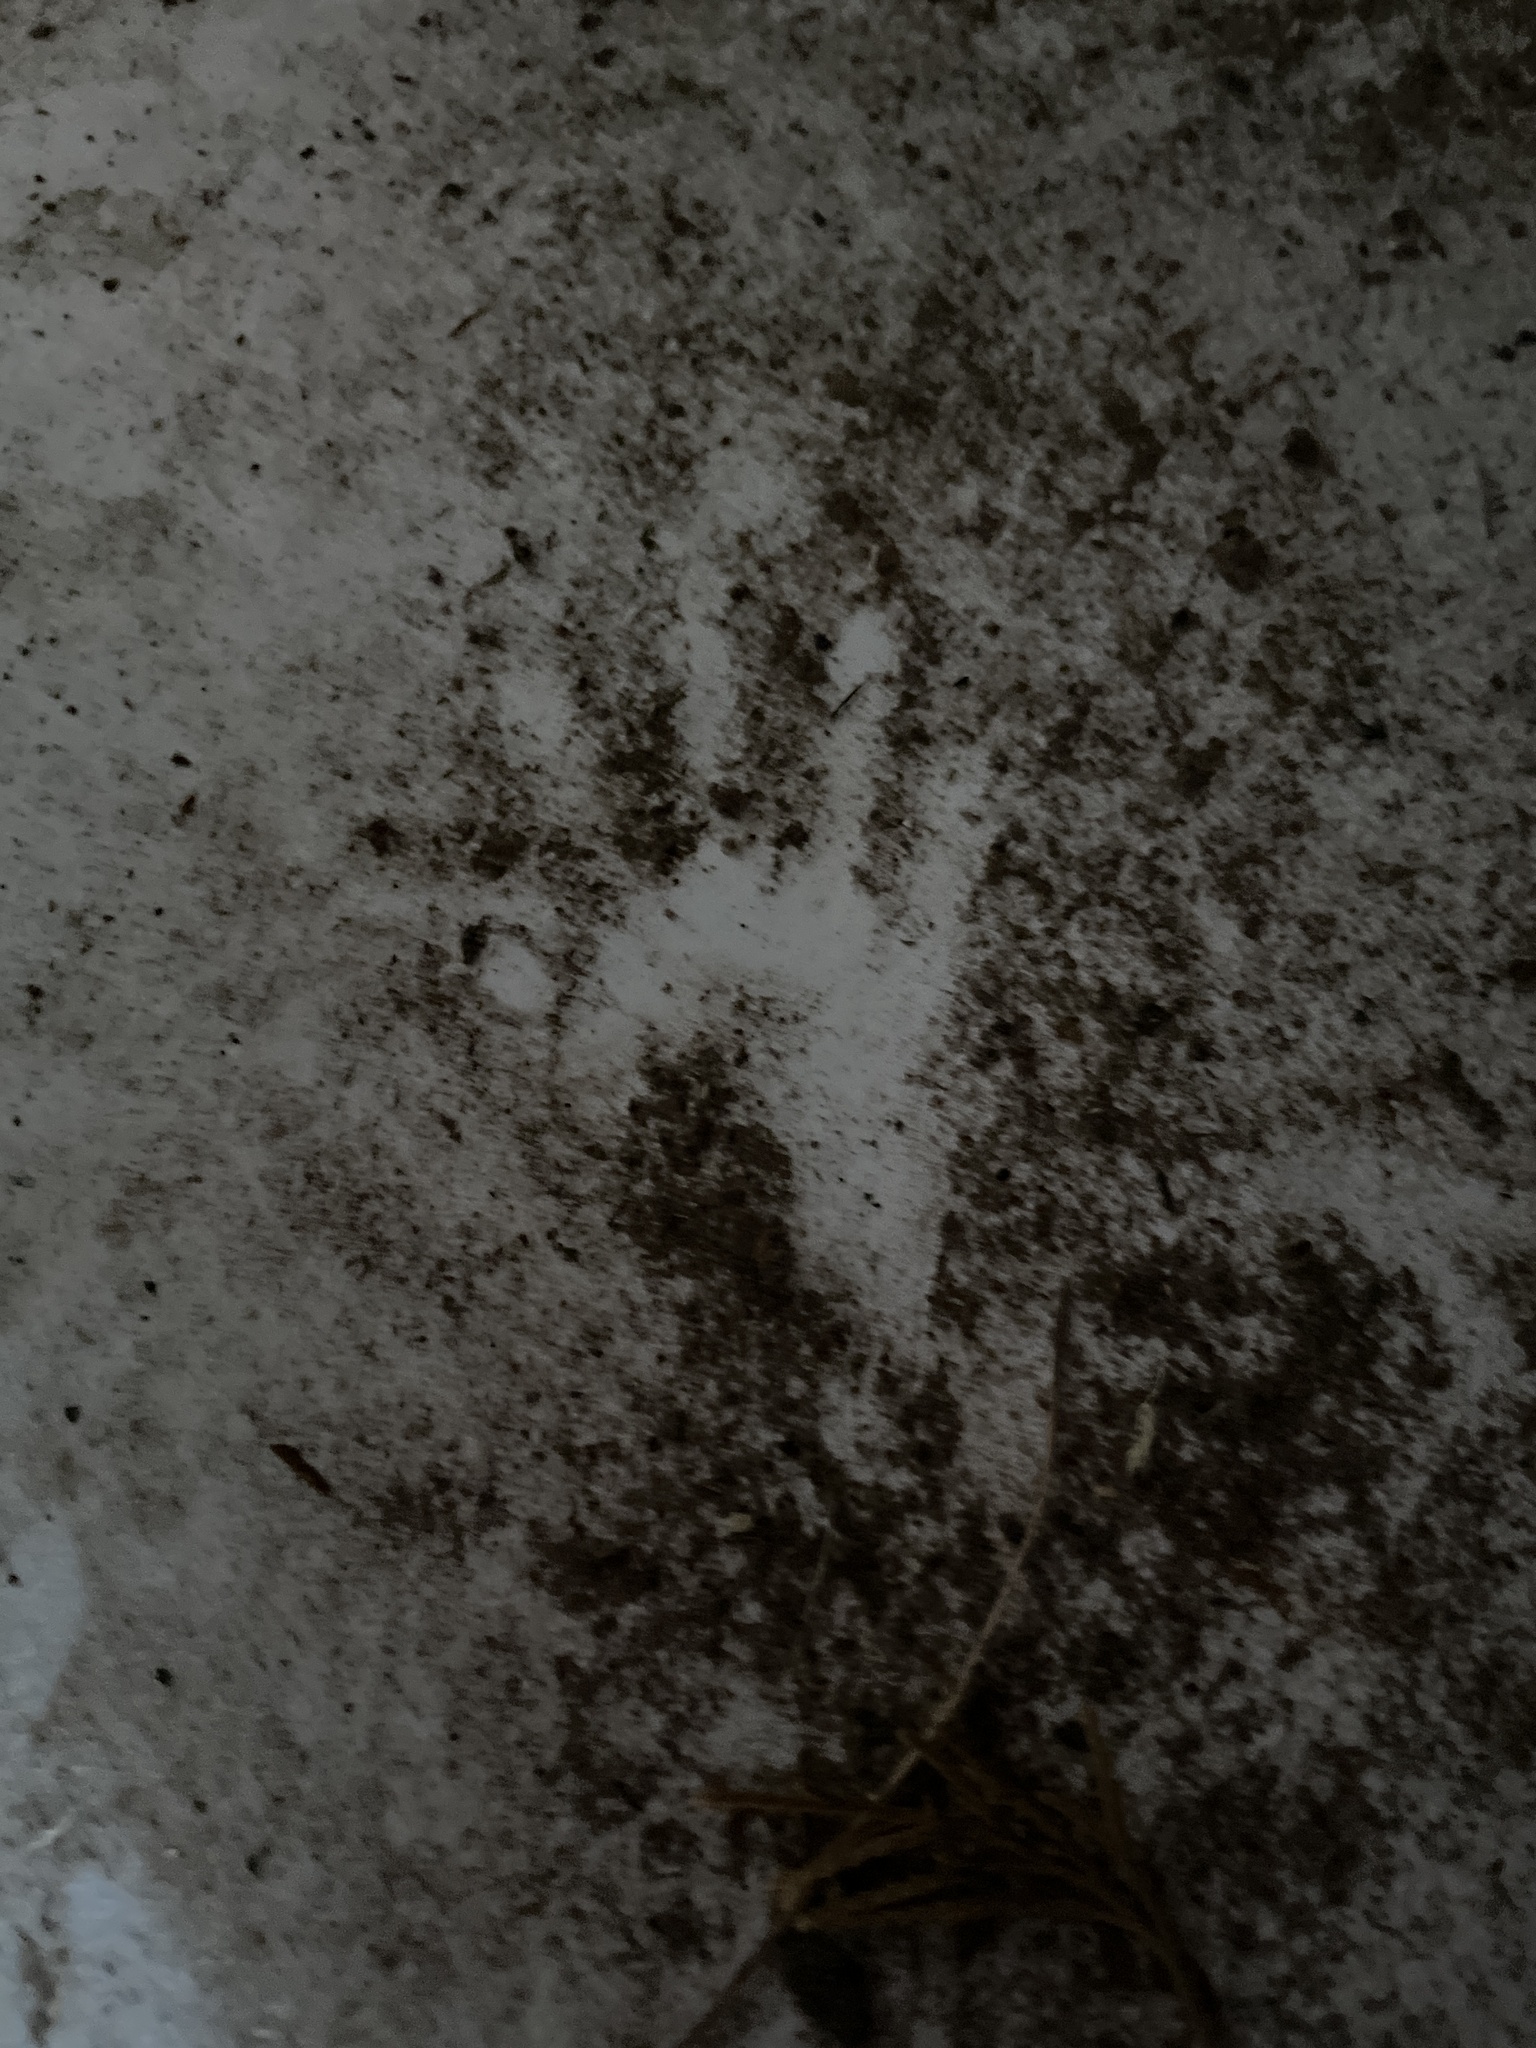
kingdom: Animalia
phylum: Chordata
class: Mammalia
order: Carnivora
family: Procyonidae
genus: Procyon
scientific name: Procyon lotor
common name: Raccoon
